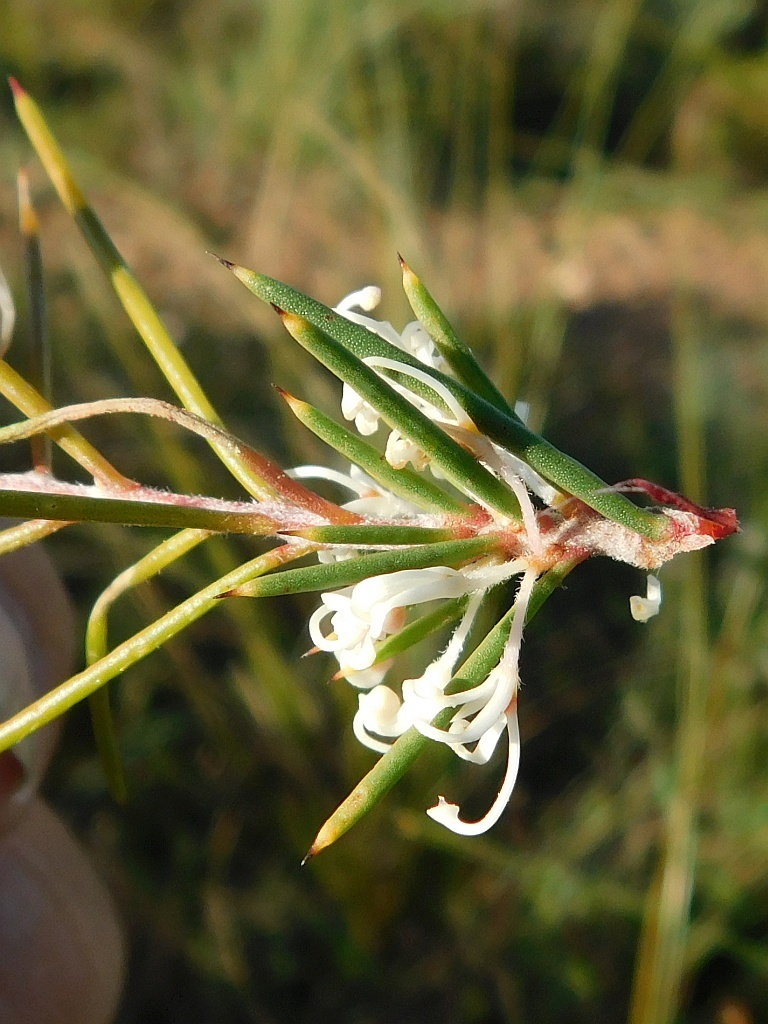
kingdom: Plantae
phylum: Tracheophyta
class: Magnoliopsida
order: Proteales
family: Proteaceae
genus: Hakea
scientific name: Hakea sericea
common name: Needle bush
